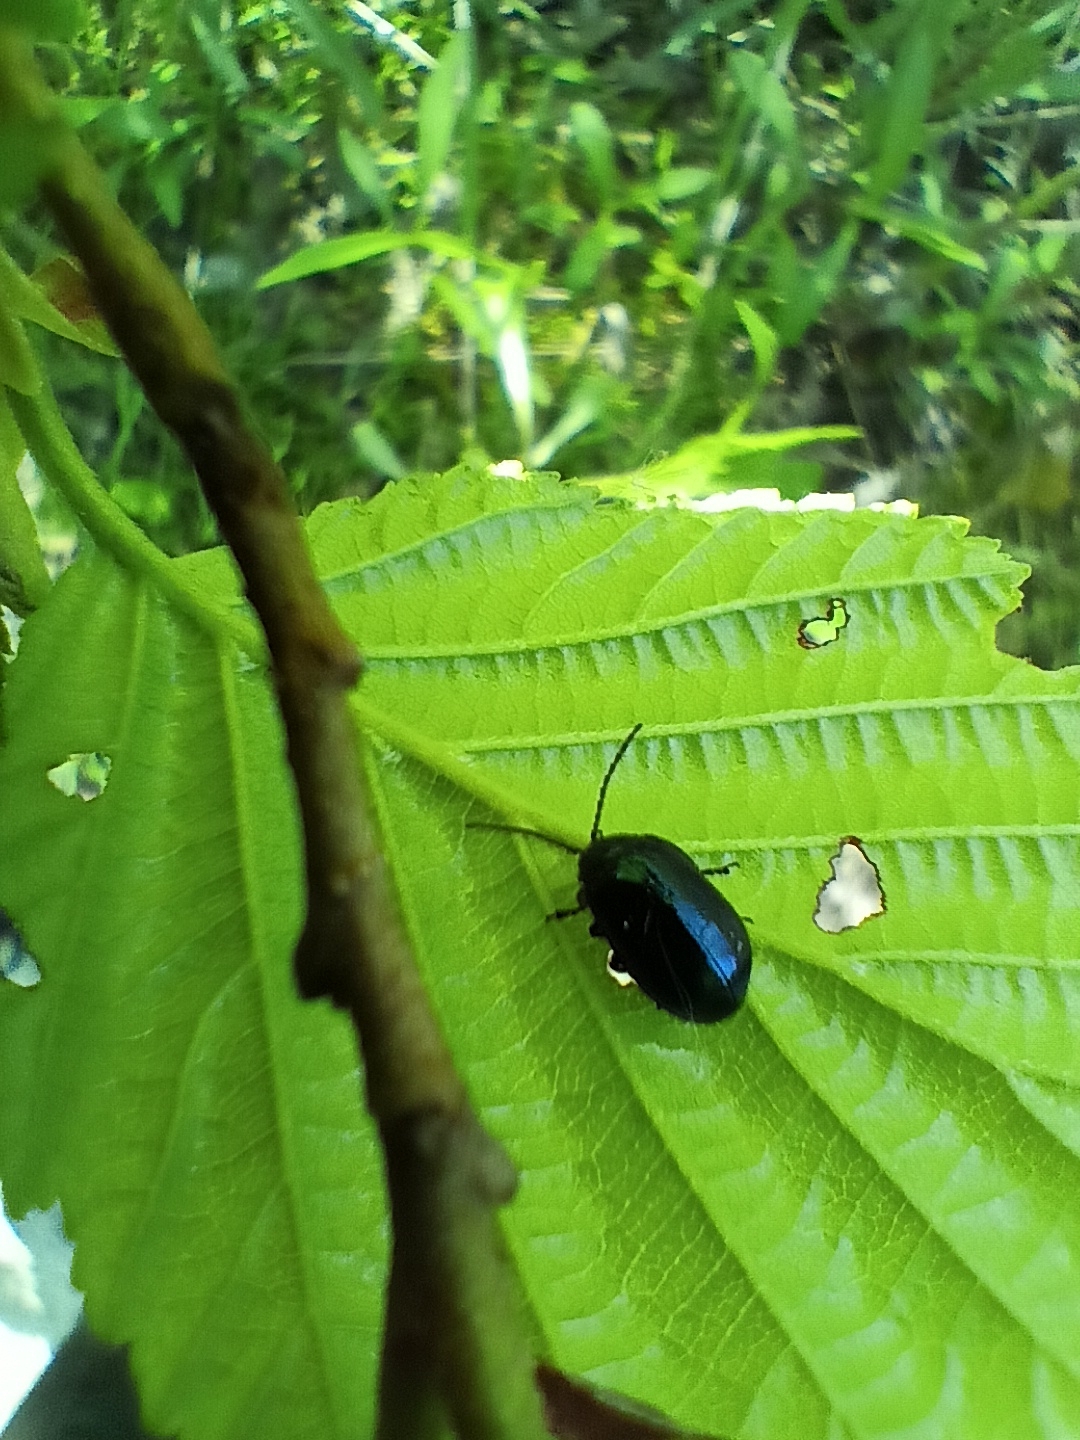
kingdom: Animalia
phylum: Arthropoda
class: Insecta
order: Coleoptera
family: Chrysomelidae
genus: Agelastica
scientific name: Agelastica alni
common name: Alder leaf beetle
